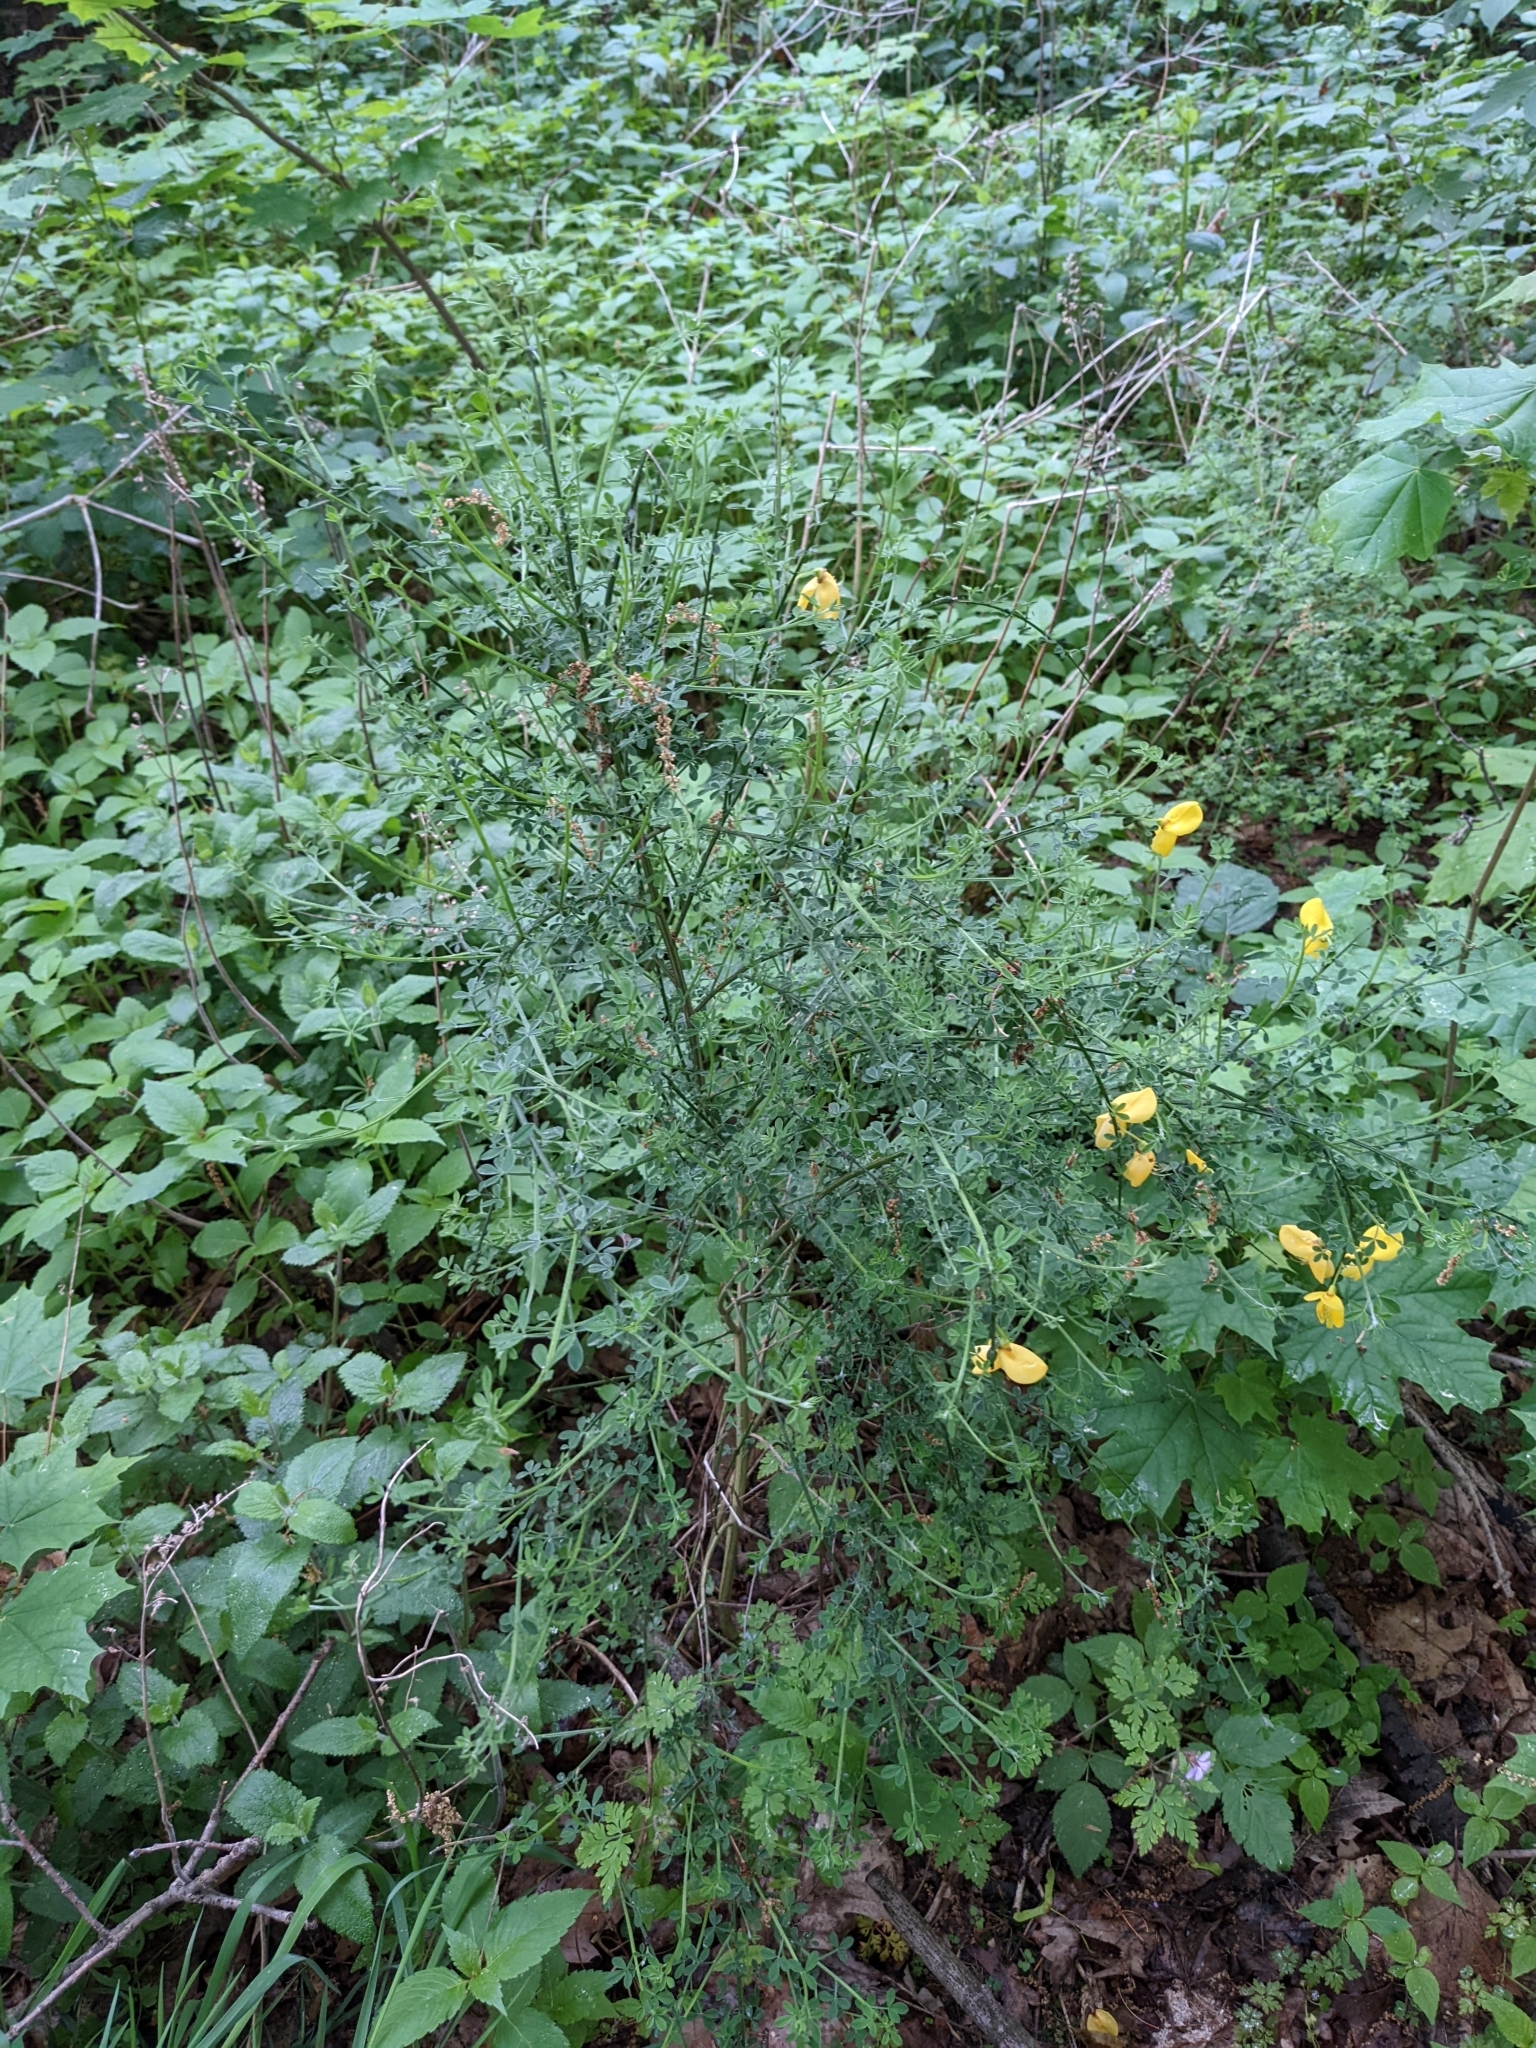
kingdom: Plantae
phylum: Tracheophyta
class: Magnoliopsida
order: Fabales
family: Fabaceae
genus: Cytisus
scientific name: Cytisus scoparius
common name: Scotch broom
